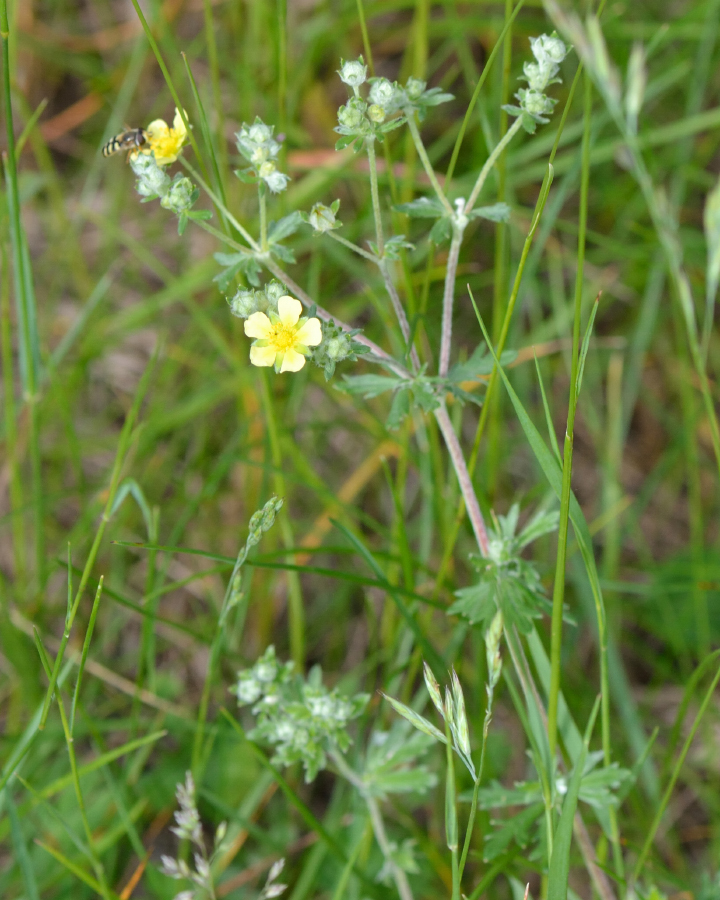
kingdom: Plantae
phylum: Tracheophyta
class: Magnoliopsida
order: Rosales
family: Rosaceae
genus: Potentilla
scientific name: Potentilla argentea
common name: Hoary cinquefoil
